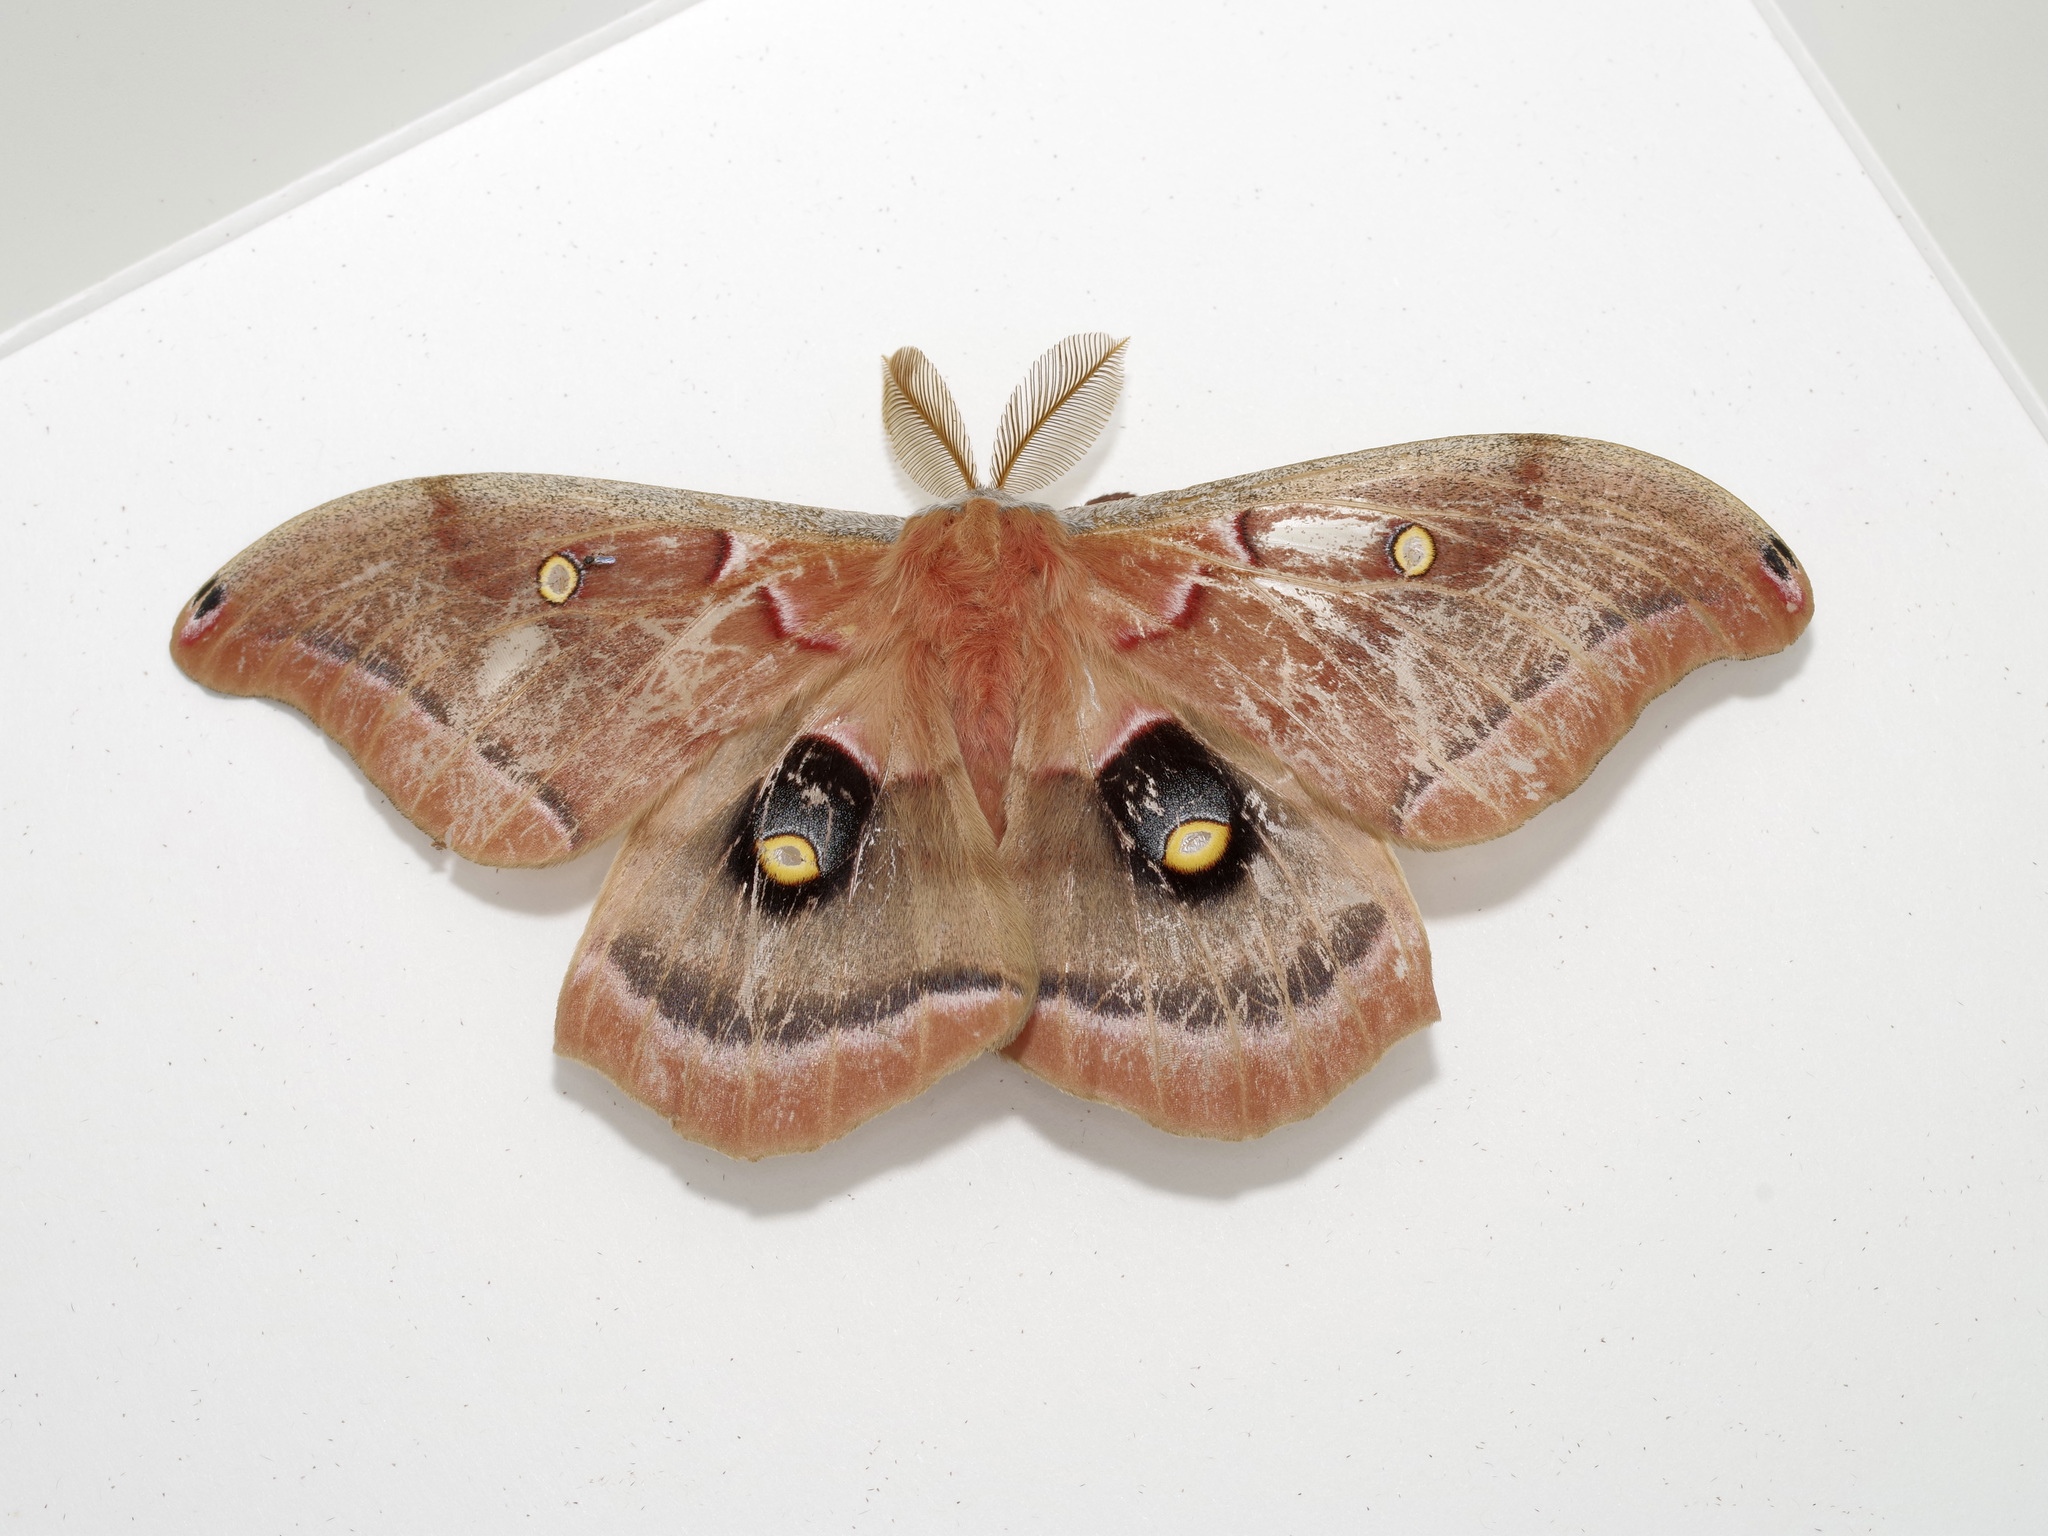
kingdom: Animalia
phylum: Arthropoda
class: Insecta
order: Lepidoptera
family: Saturniidae
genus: Antheraea
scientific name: Antheraea polyphemus
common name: Polyphemus moth
